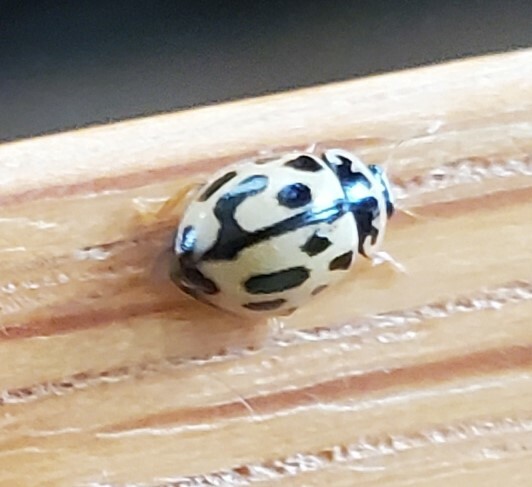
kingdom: Animalia
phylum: Arthropoda
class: Insecta
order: Coleoptera
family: Coccinellidae
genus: Propylaea
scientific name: Propylaea quatuordecimpunctata
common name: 14-spotted ladybird beetle
